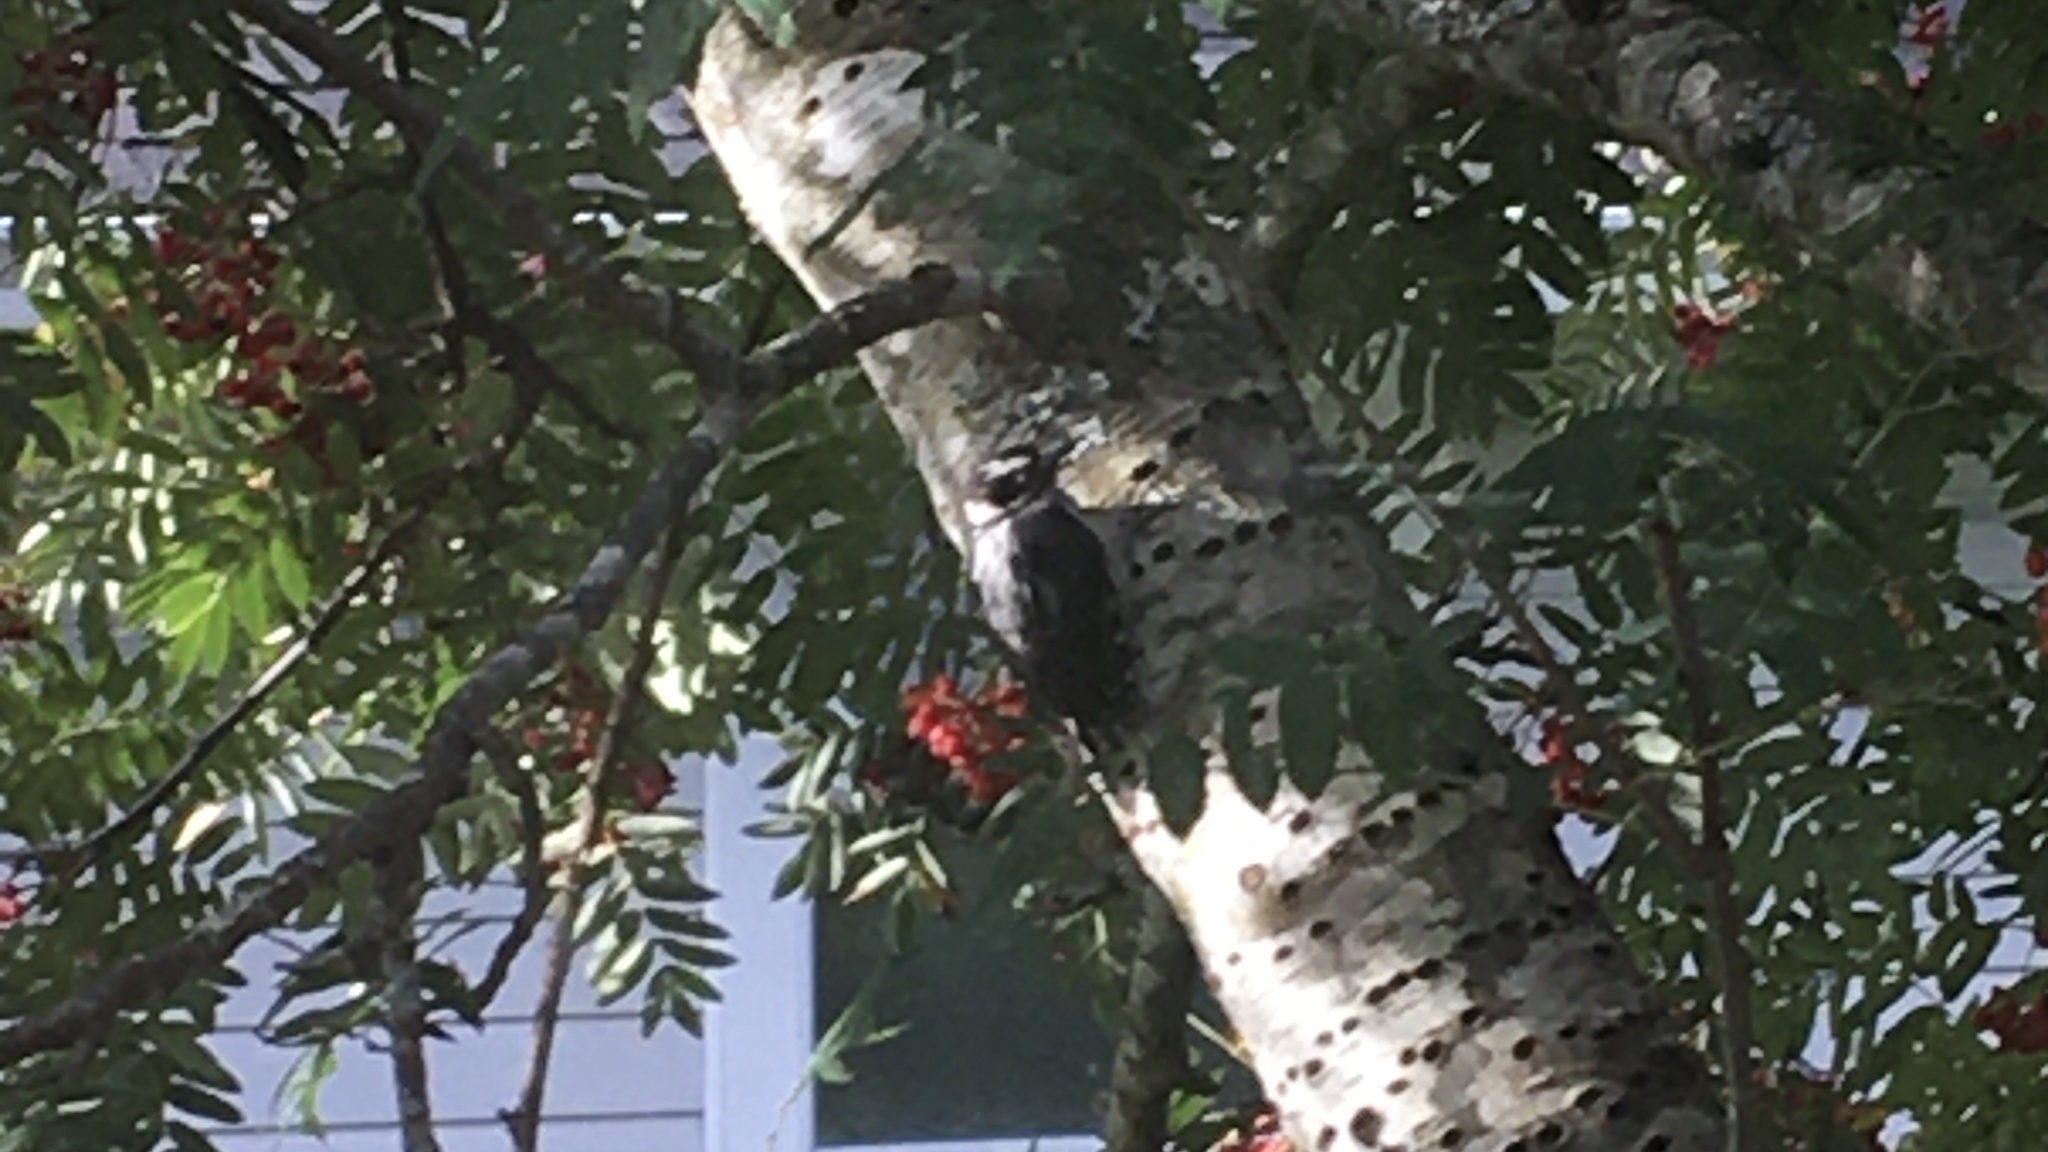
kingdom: Animalia
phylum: Chordata
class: Aves
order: Piciformes
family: Picidae
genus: Dryobates
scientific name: Dryobates pubescens
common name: Downy woodpecker
